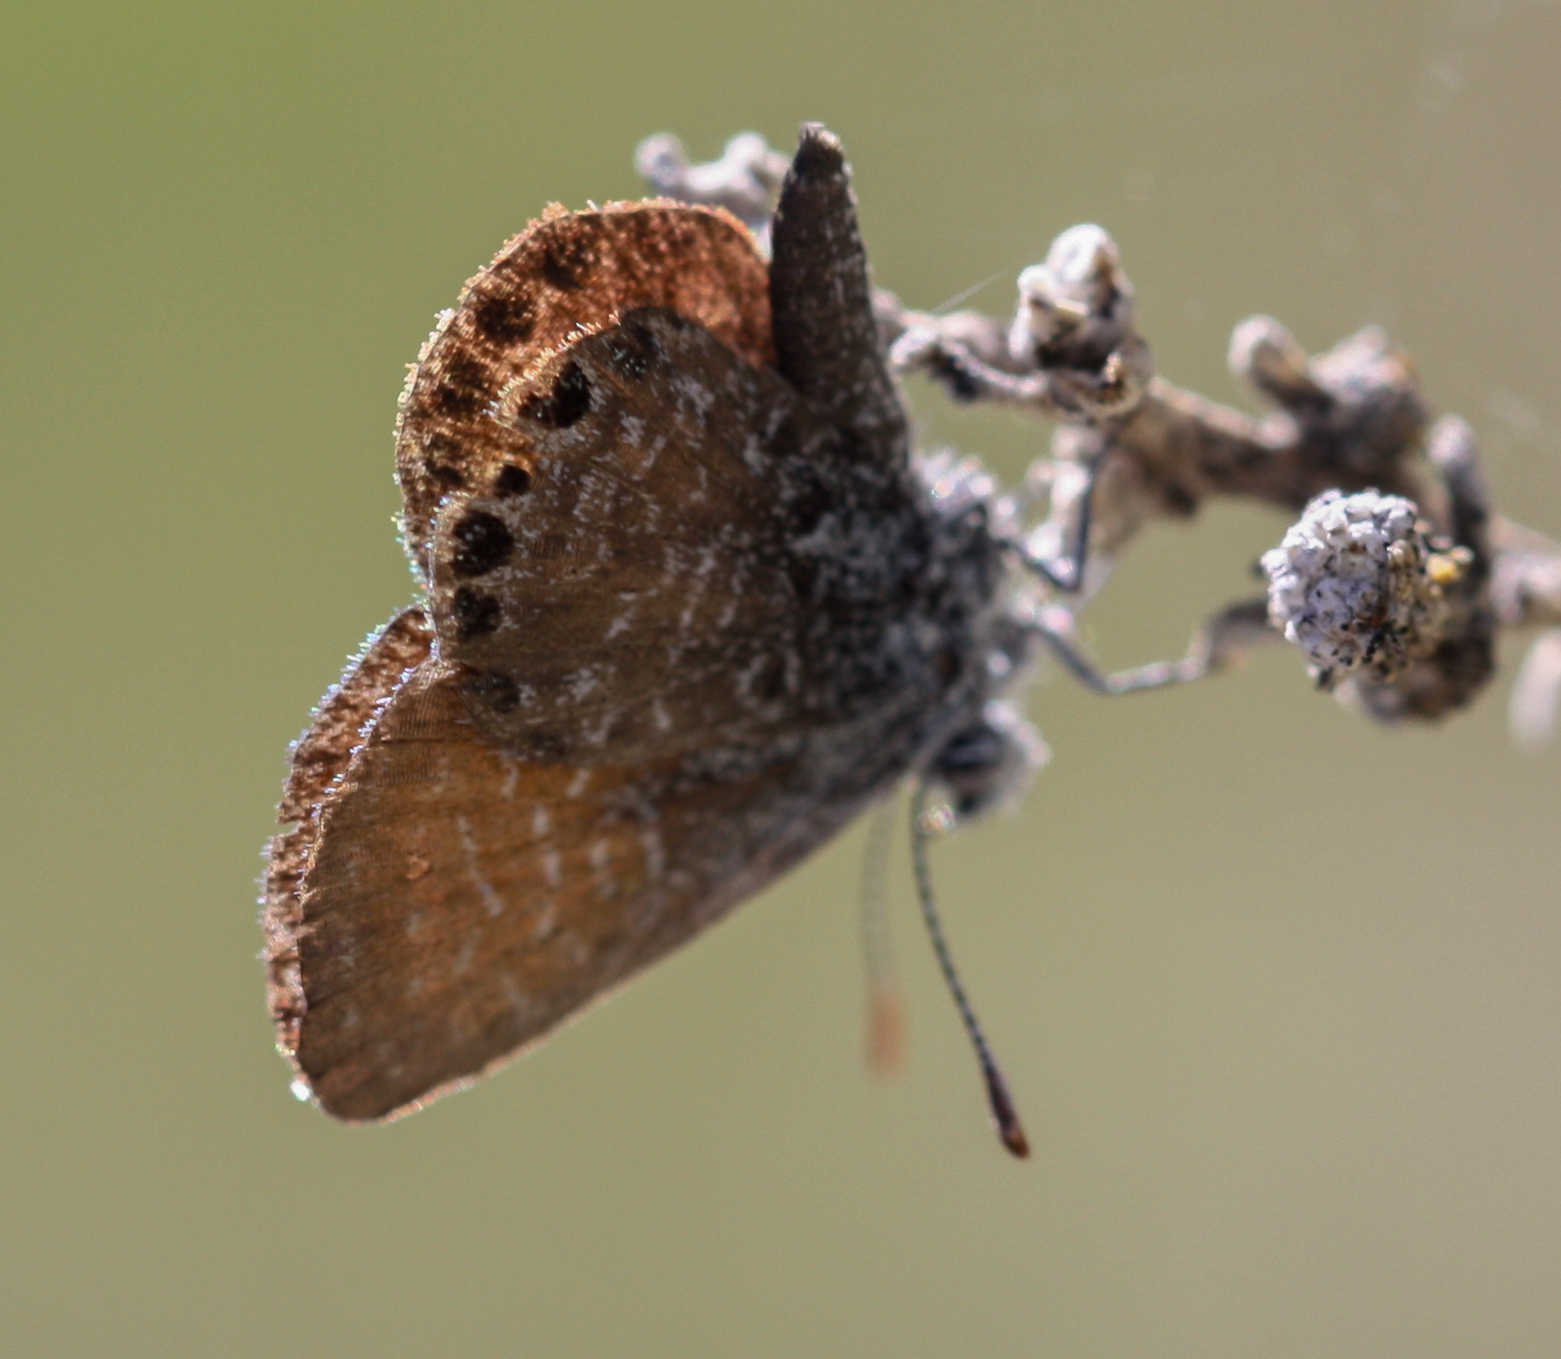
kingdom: Animalia
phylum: Arthropoda
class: Insecta
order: Lepidoptera
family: Lycaenidae
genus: Brephidium
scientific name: Brephidium exilis
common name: Pygmy blue
